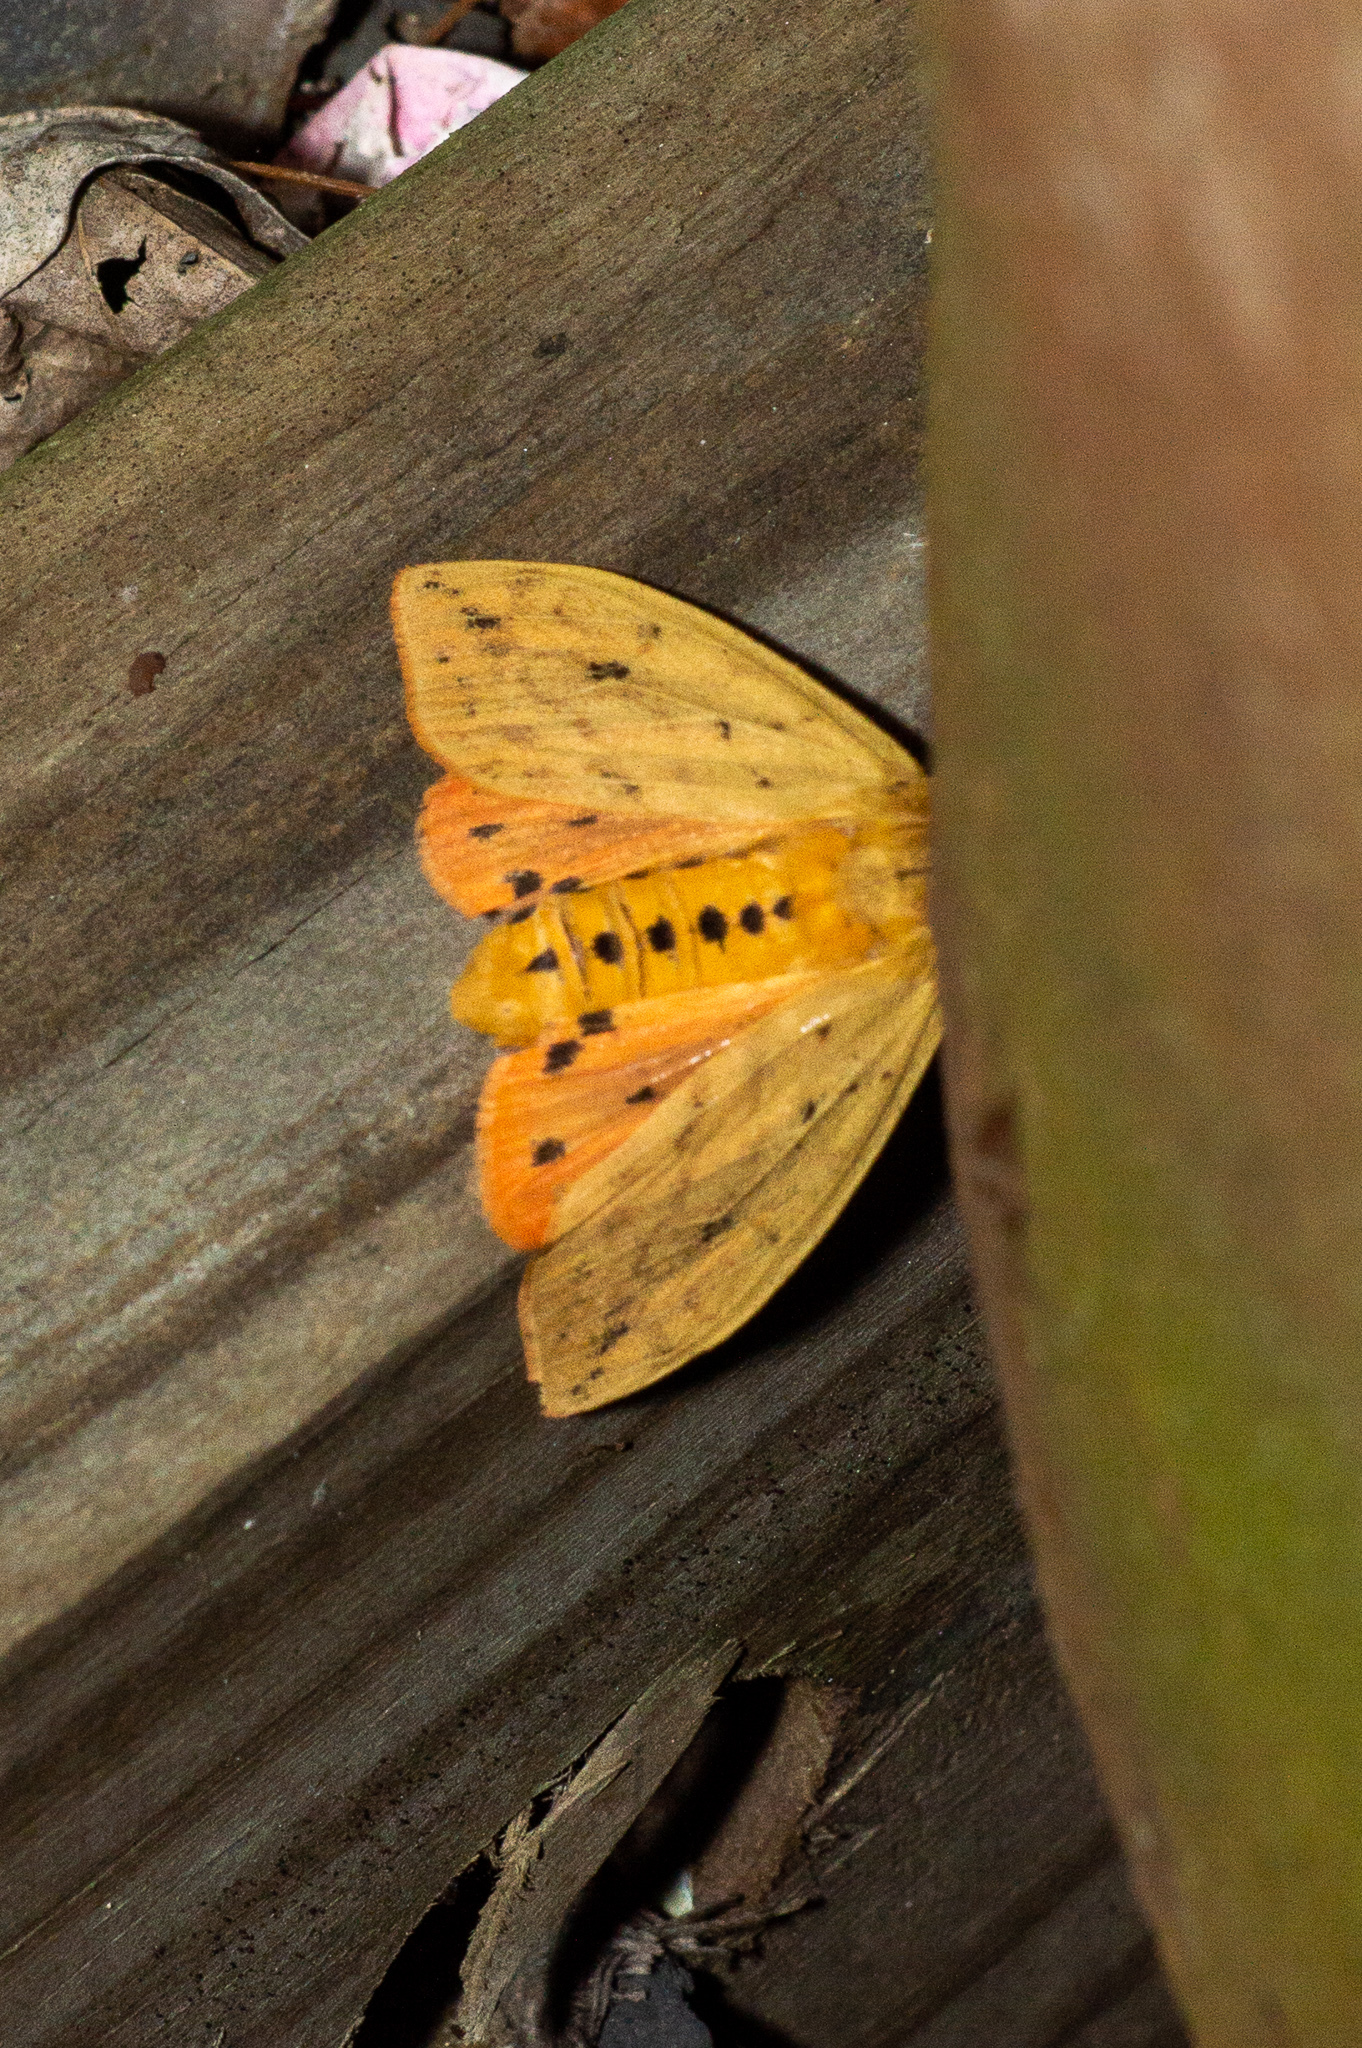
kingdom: Animalia
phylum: Arthropoda
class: Insecta
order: Lepidoptera
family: Erebidae
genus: Pyrrharctia
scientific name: Pyrrharctia isabella
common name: Isabella tiger moth
